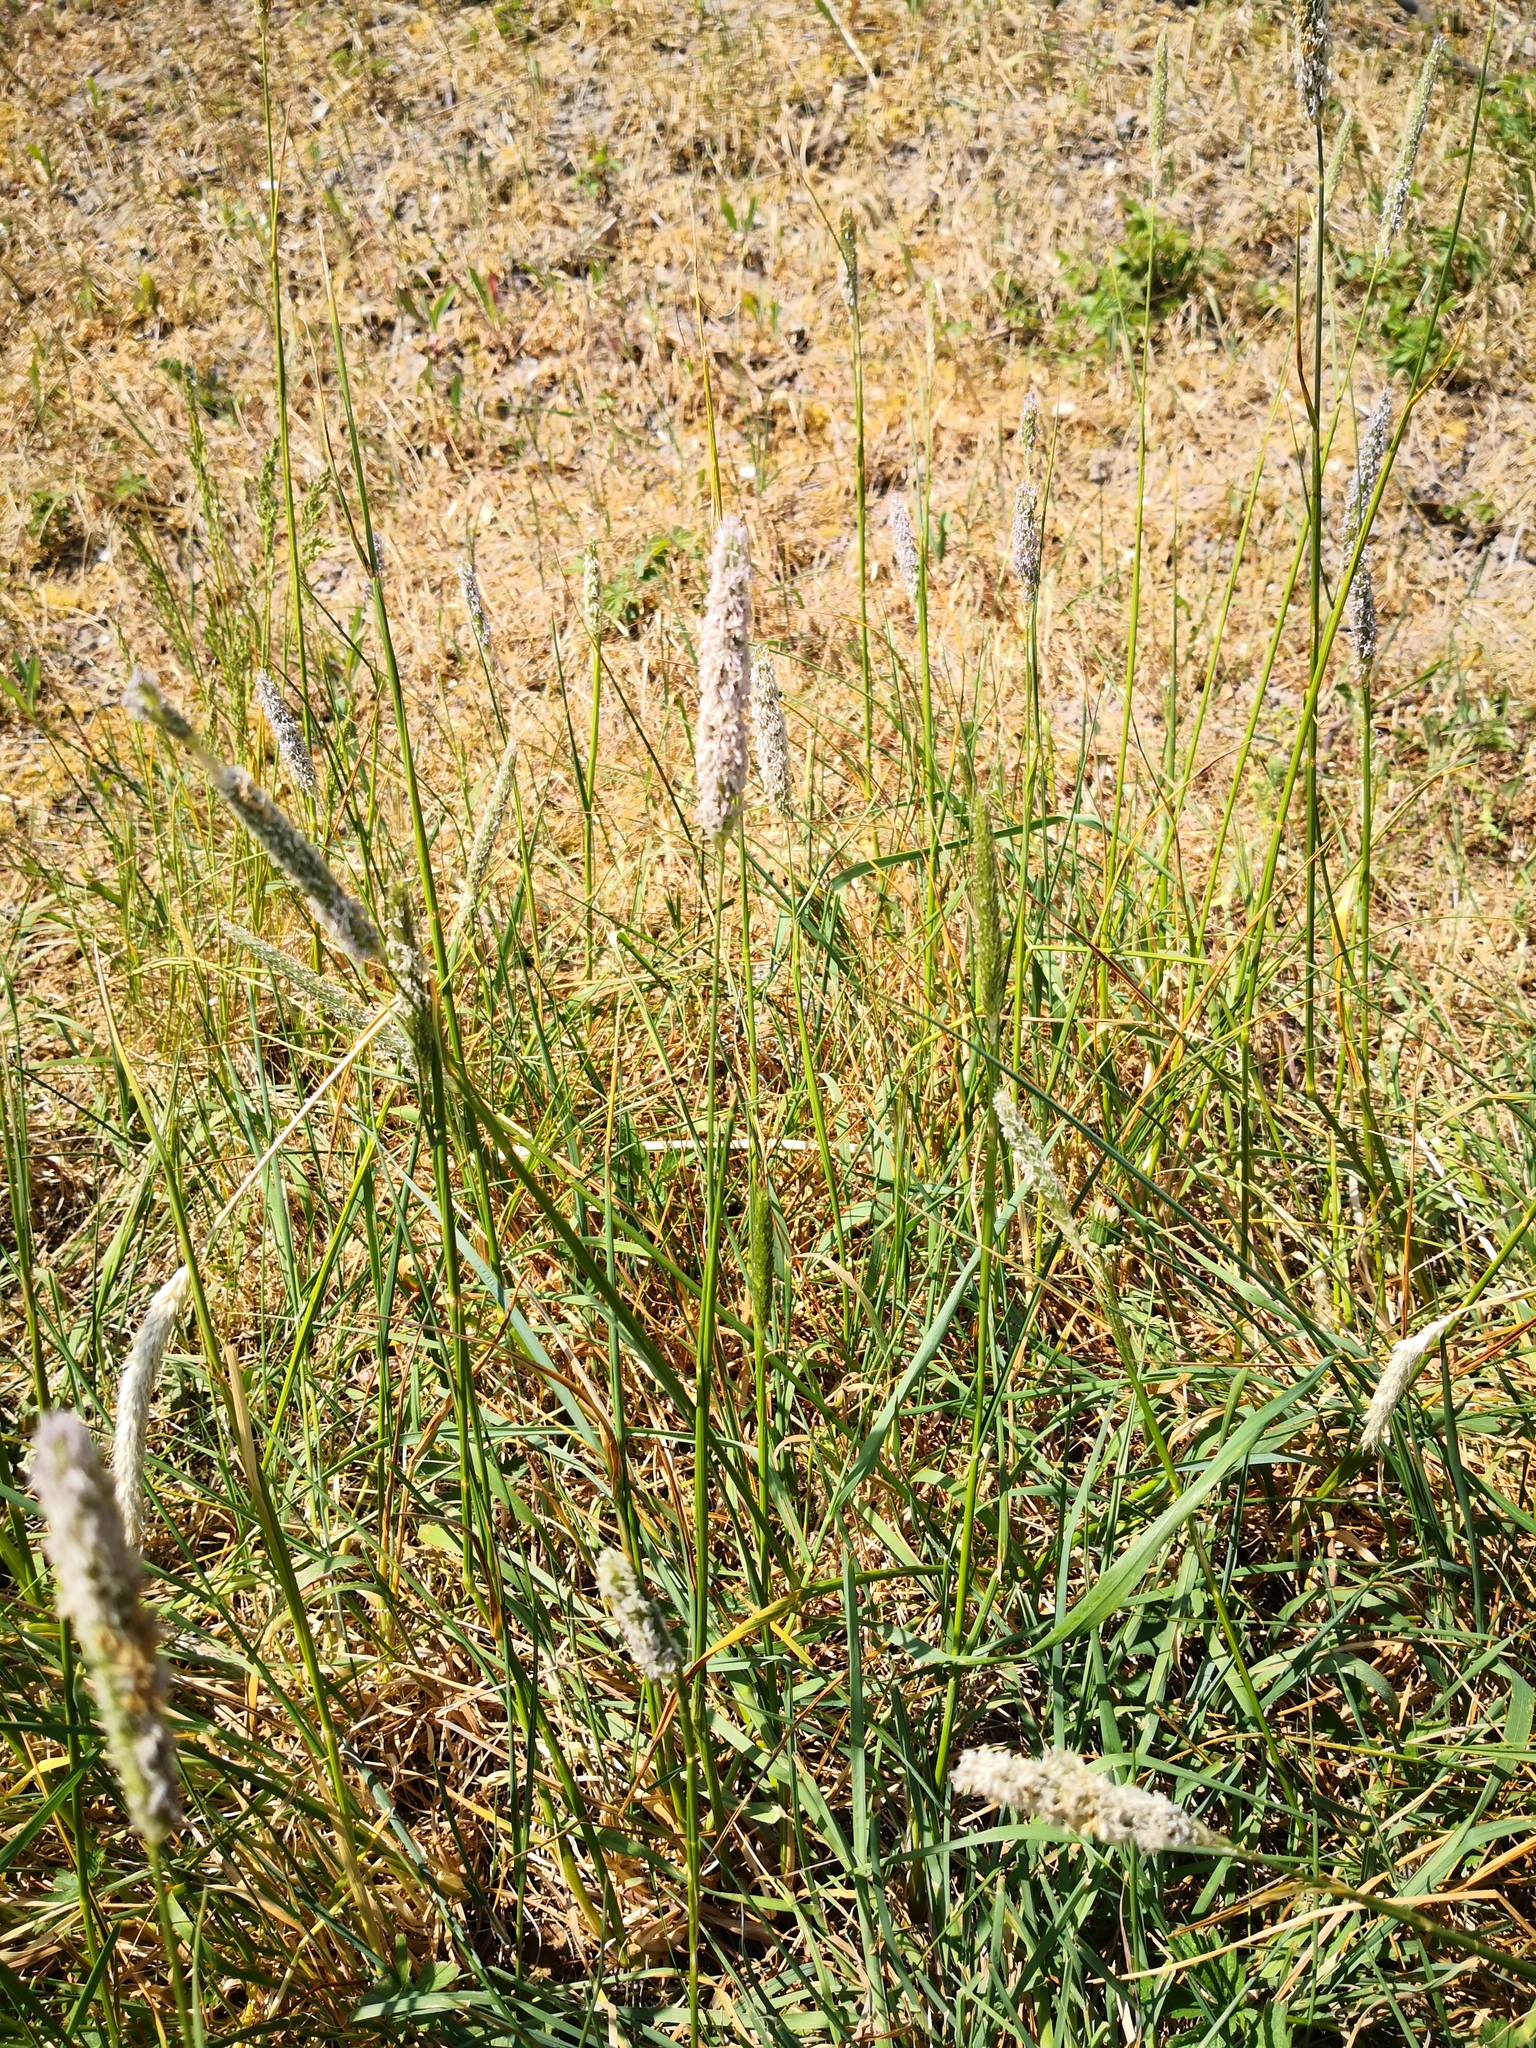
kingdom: Plantae
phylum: Tracheophyta
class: Liliopsida
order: Poales
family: Poaceae
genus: Alopecurus
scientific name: Alopecurus pratensis
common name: Meadow foxtail
